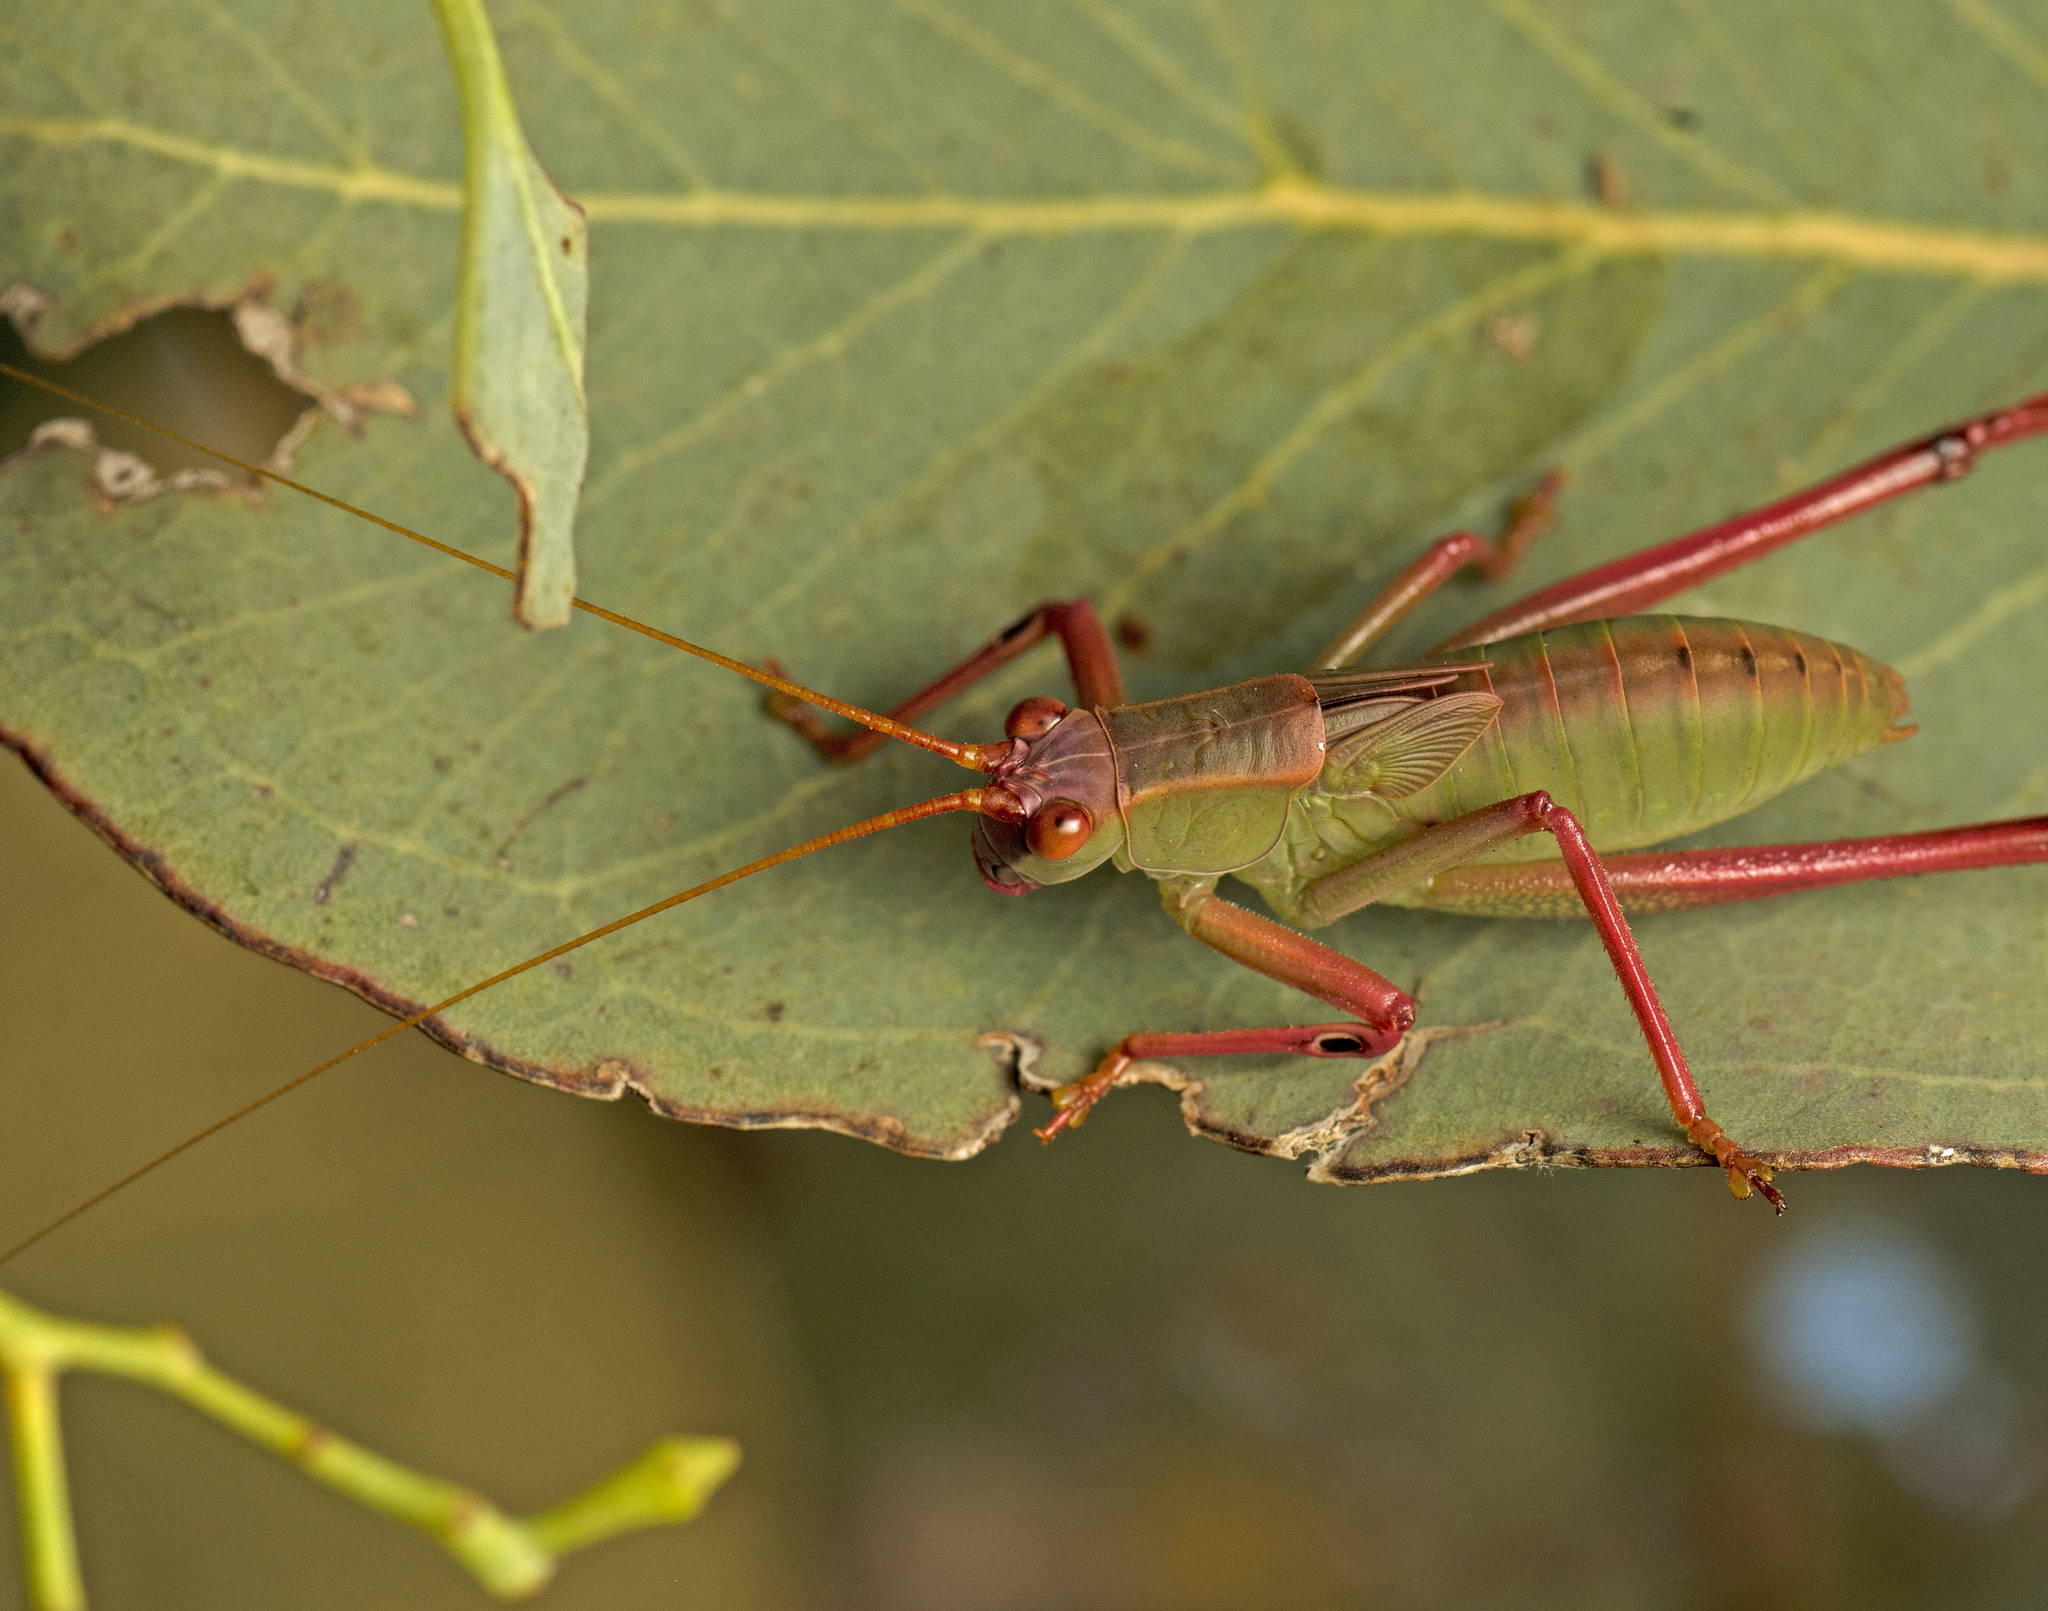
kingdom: Animalia
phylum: Arthropoda
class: Insecta
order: Orthoptera
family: Tettigoniidae
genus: Torbia
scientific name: Torbia viridissima
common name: Non-predaceous gum leaf katydid
